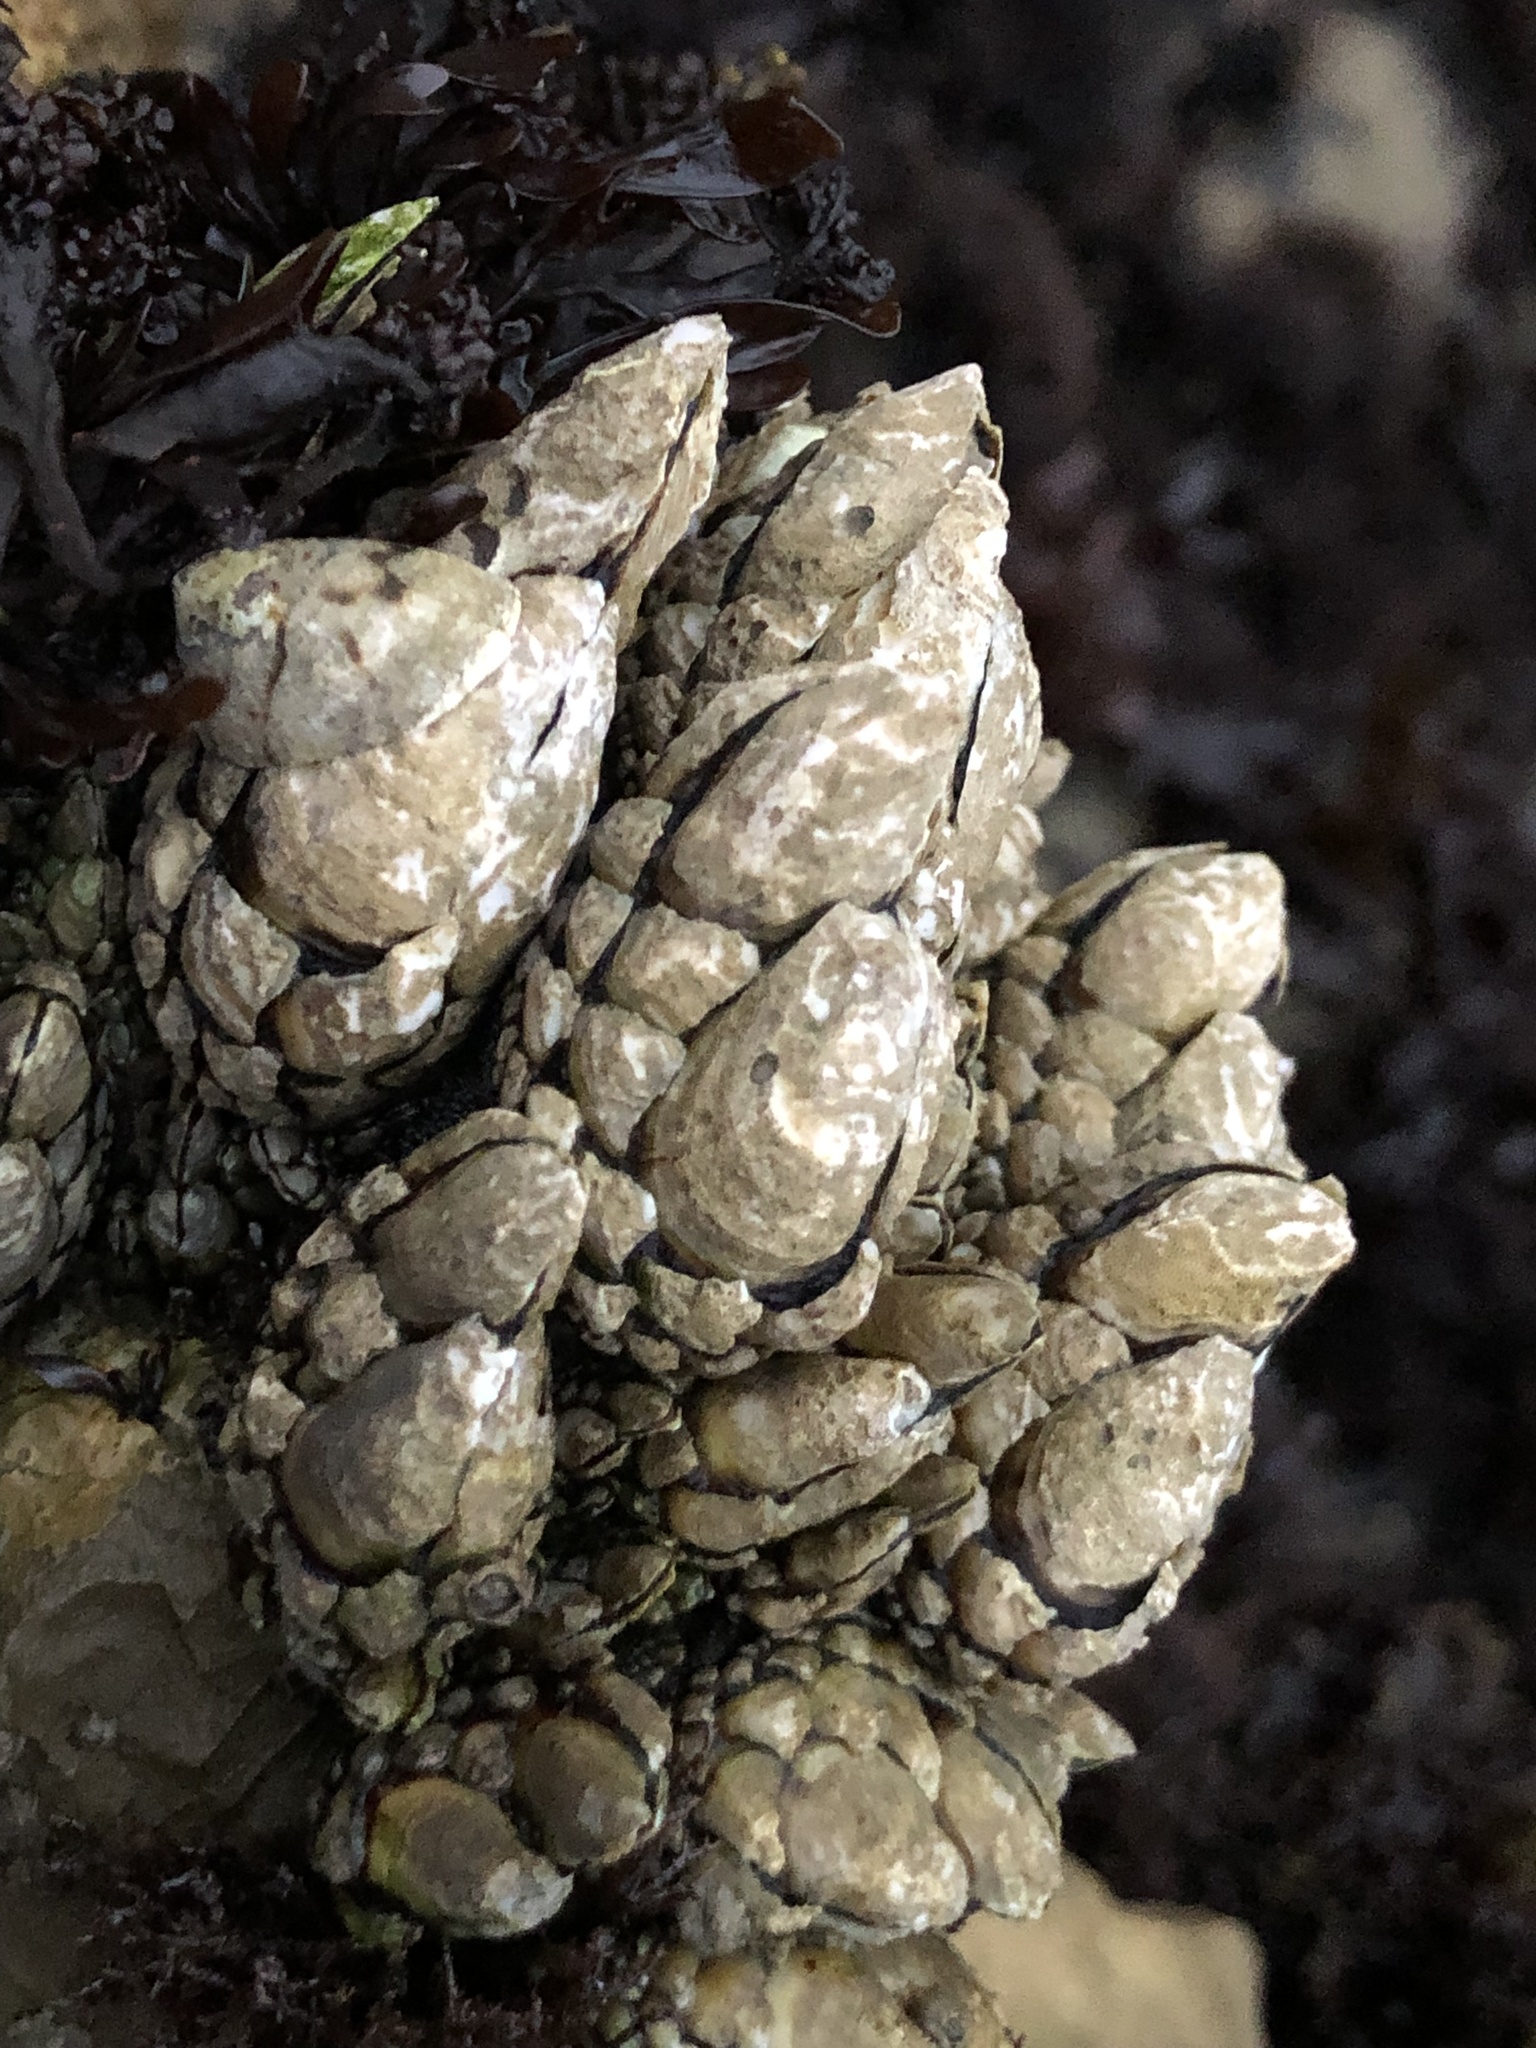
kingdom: Animalia
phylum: Arthropoda
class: Maxillopoda
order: Pedunculata
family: Pollicipedidae
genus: Pollicipes
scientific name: Pollicipes polymerus
